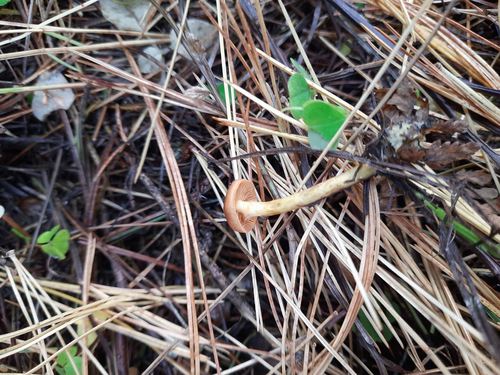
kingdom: Fungi
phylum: Basidiomycota
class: Agaricomycetes
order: Agaricales
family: Cortinariaceae
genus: Cortinarius
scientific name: Cortinarius
